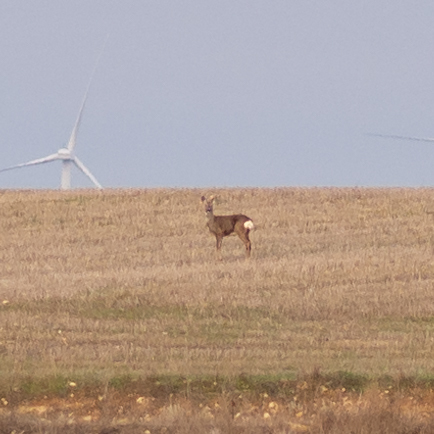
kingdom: Animalia
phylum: Chordata
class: Mammalia
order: Artiodactyla
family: Cervidae
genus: Capreolus
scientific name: Capreolus capreolus
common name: Western roe deer
